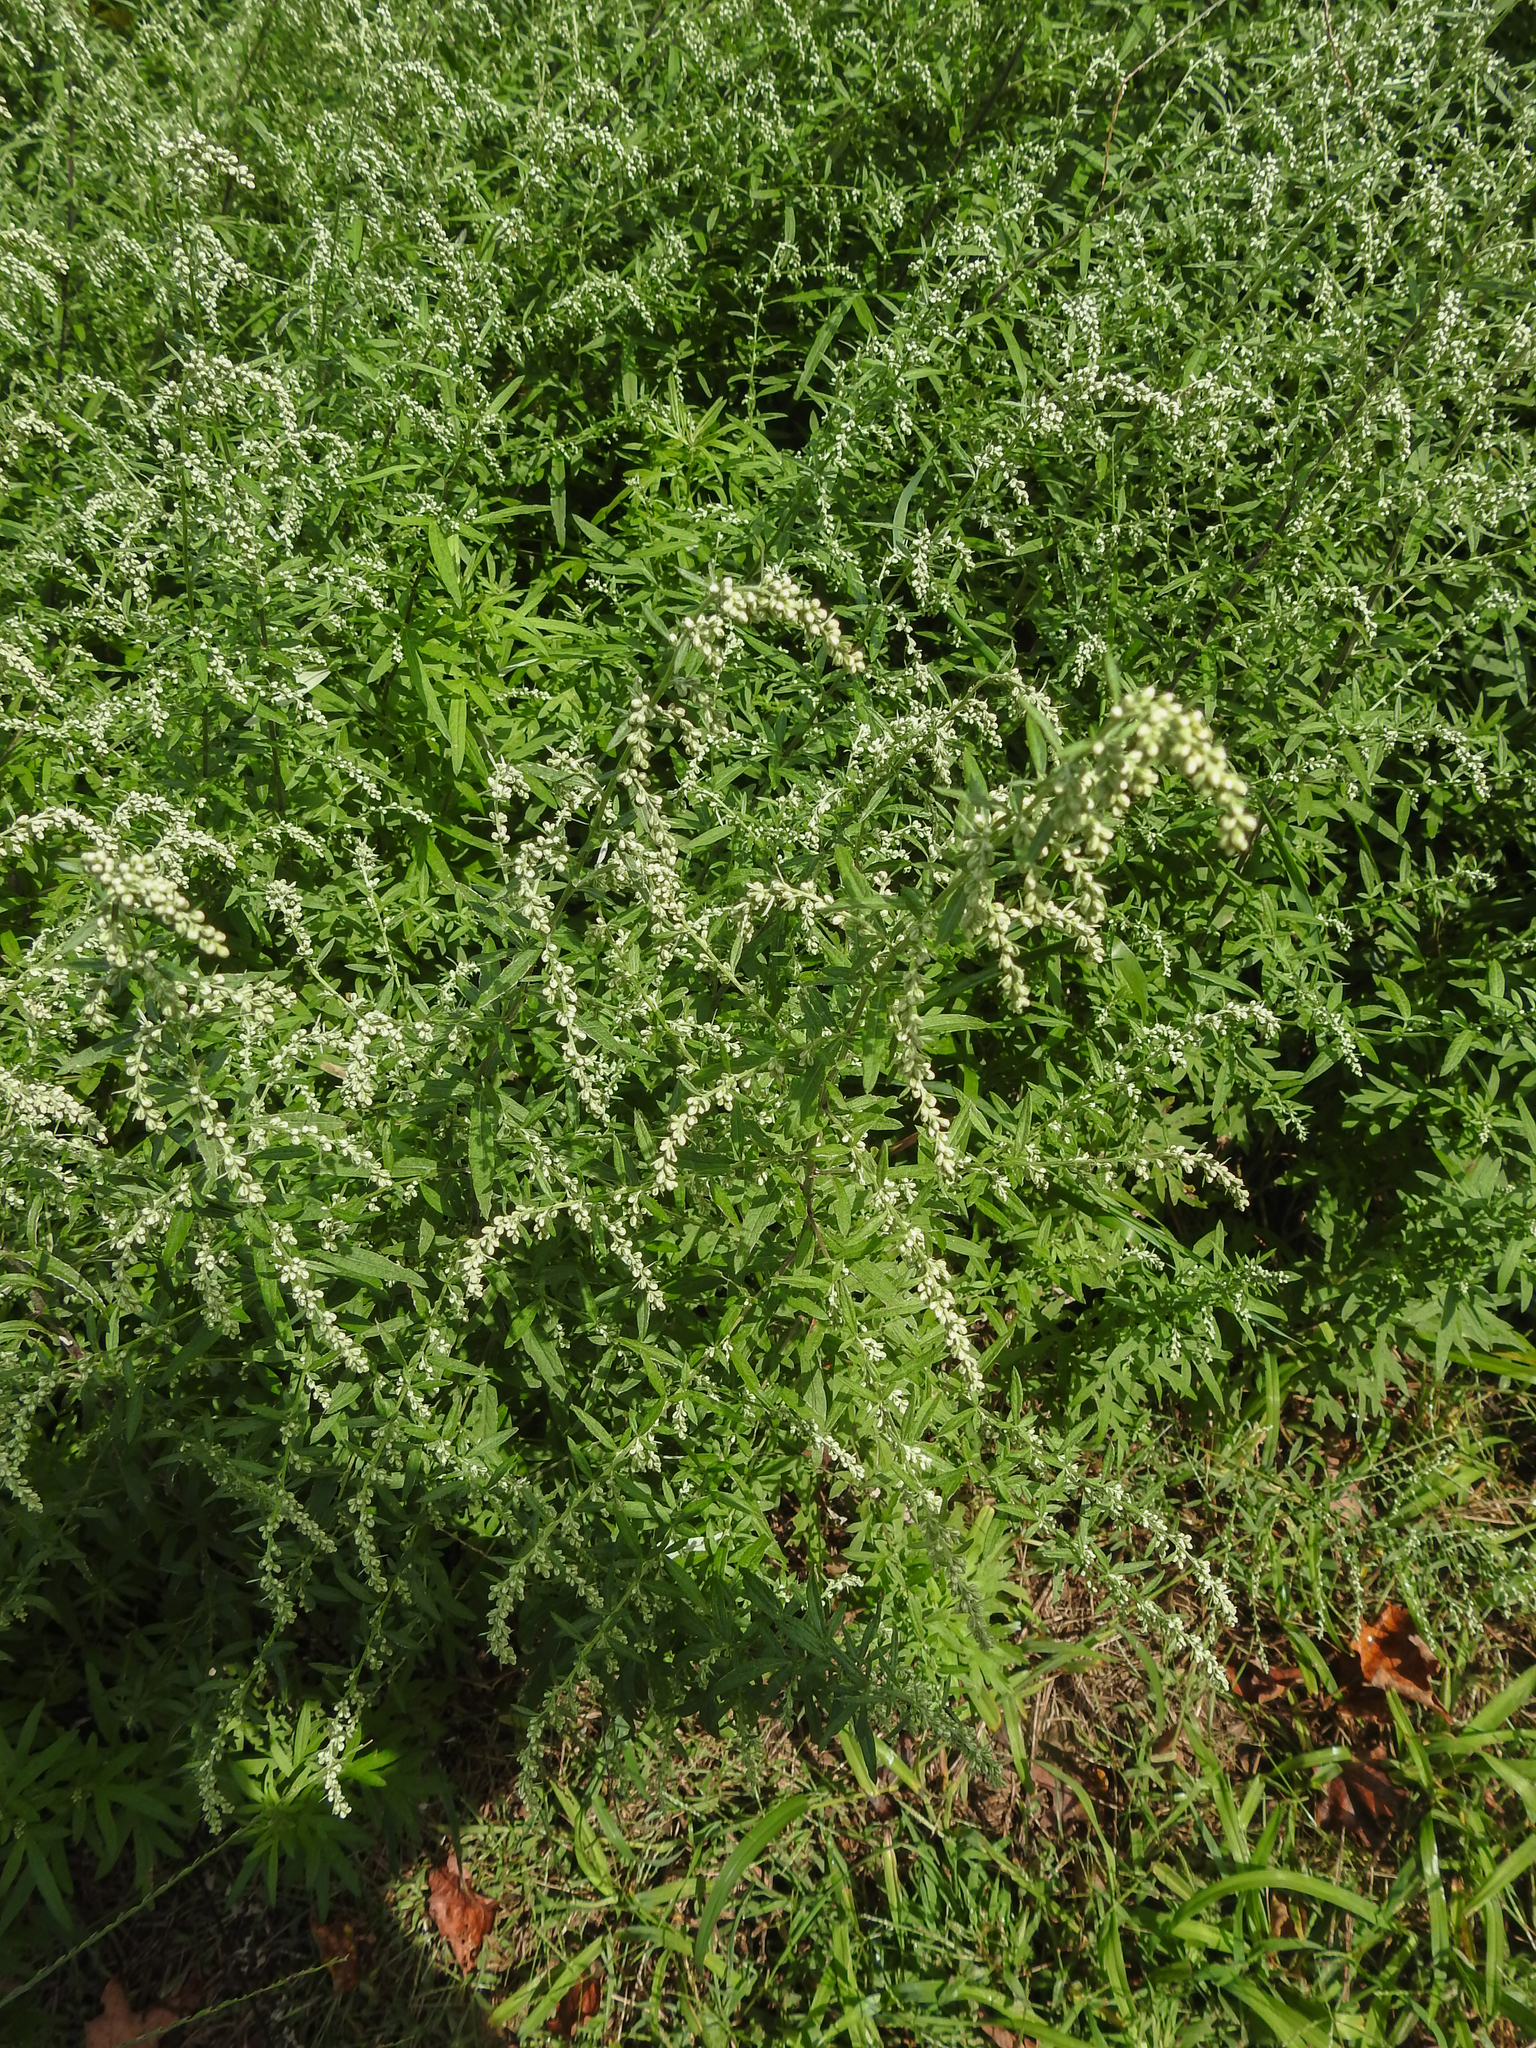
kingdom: Plantae
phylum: Tracheophyta
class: Magnoliopsida
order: Asterales
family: Asteraceae
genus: Artemisia
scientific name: Artemisia vulgaris
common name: Mugwort
